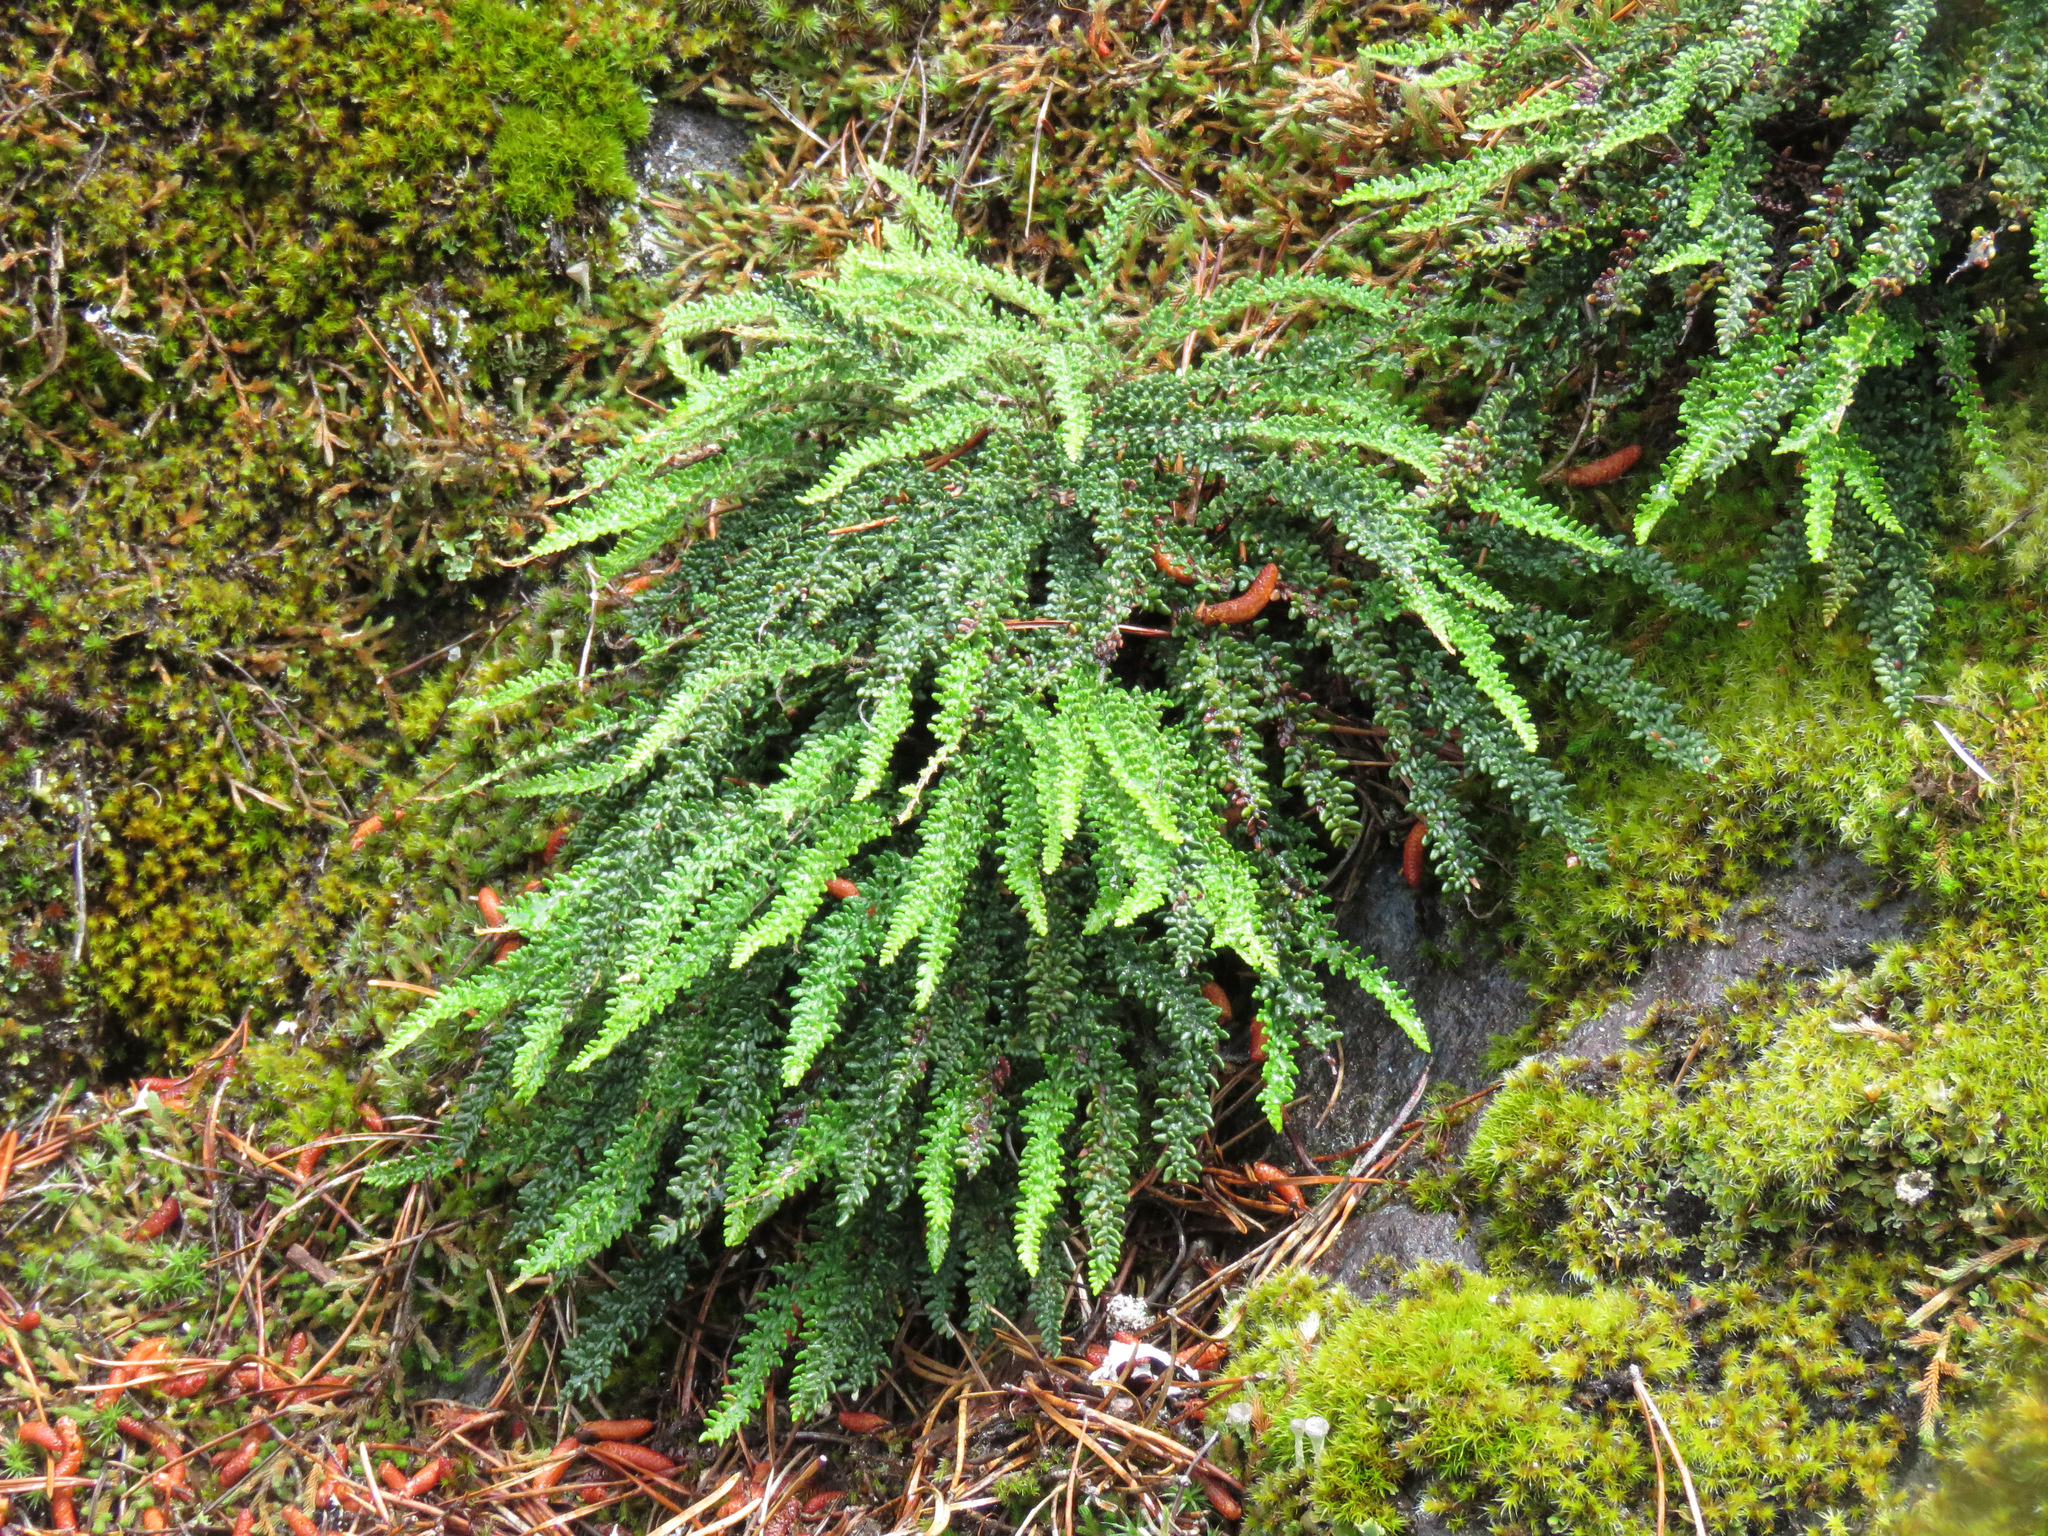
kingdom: Plantae
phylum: Tracheophyta
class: Polypodiopsida
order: Polypodiales
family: Pteridaceae
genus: Myriopteris
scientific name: Myriopteris gracillima
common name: Lace fern
